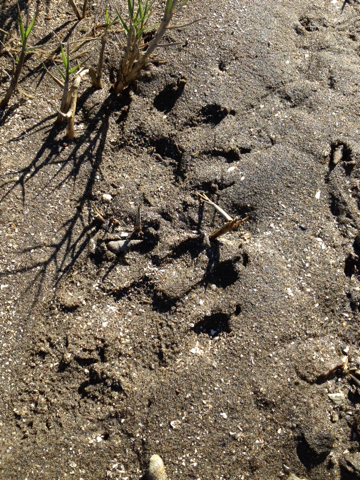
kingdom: Animalia
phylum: Chordata
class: Mammalia
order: Carnivora
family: Procyonidae
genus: Procyon
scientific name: Procyon lotor
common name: Raccoon
